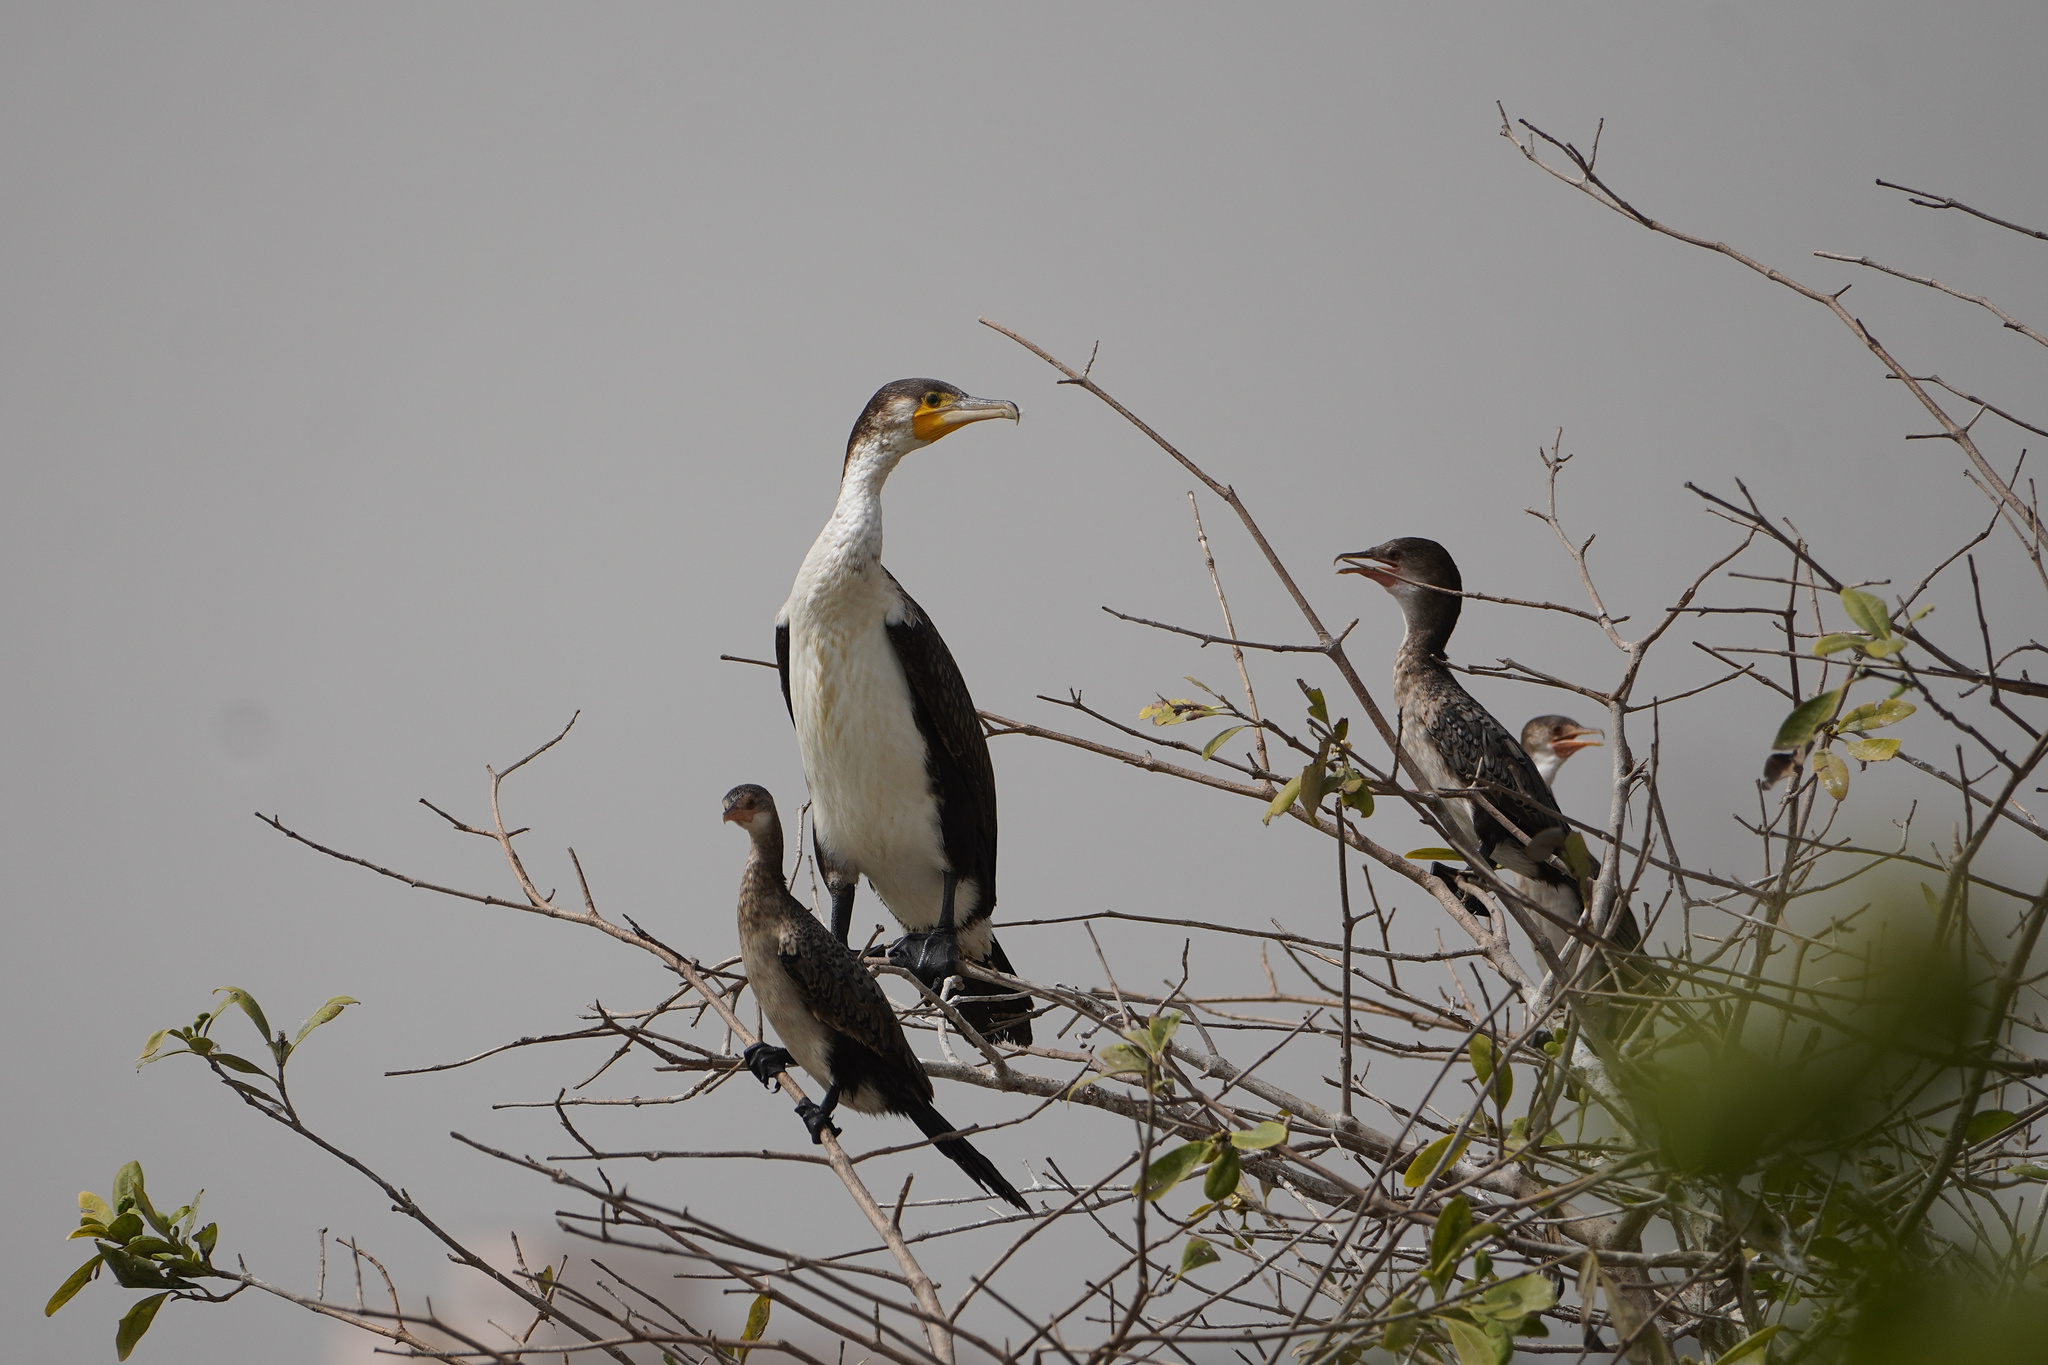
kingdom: Animalia
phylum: Chordata
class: Aves
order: Suliformes
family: Phalacrocoracidae
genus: Phalacrocorax
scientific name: Phalacrocorax carbo
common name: Great cormorant
